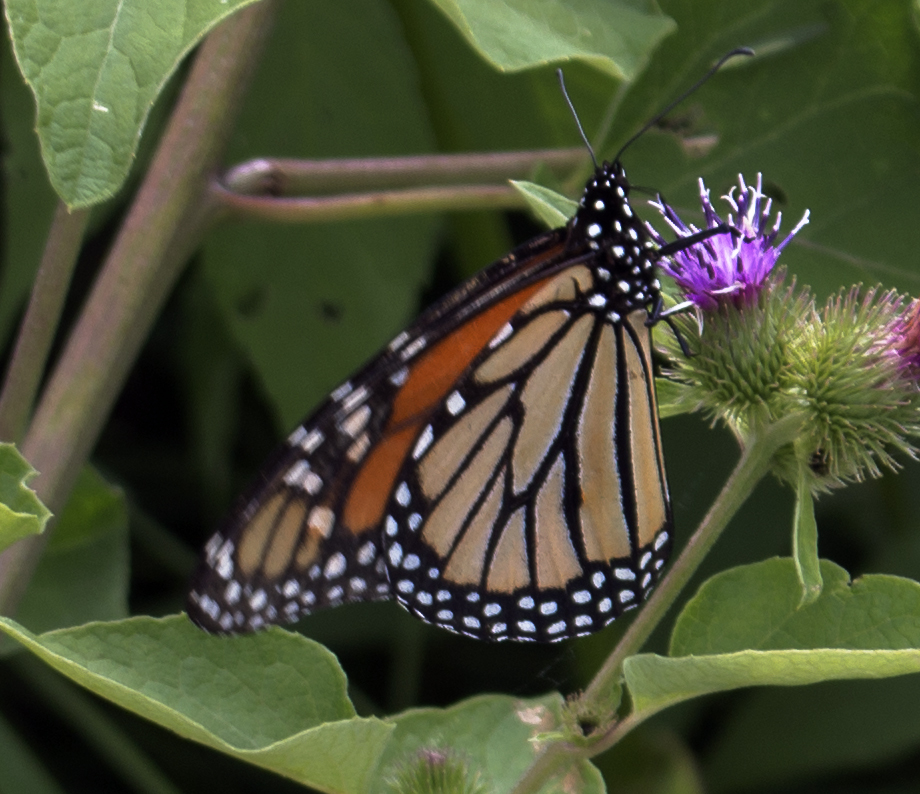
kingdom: Animalia
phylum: Arthropoda
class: Insecta
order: Lepidoptera
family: Nymphalidae
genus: Danaus
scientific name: Danaus plexippus
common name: Monarch
